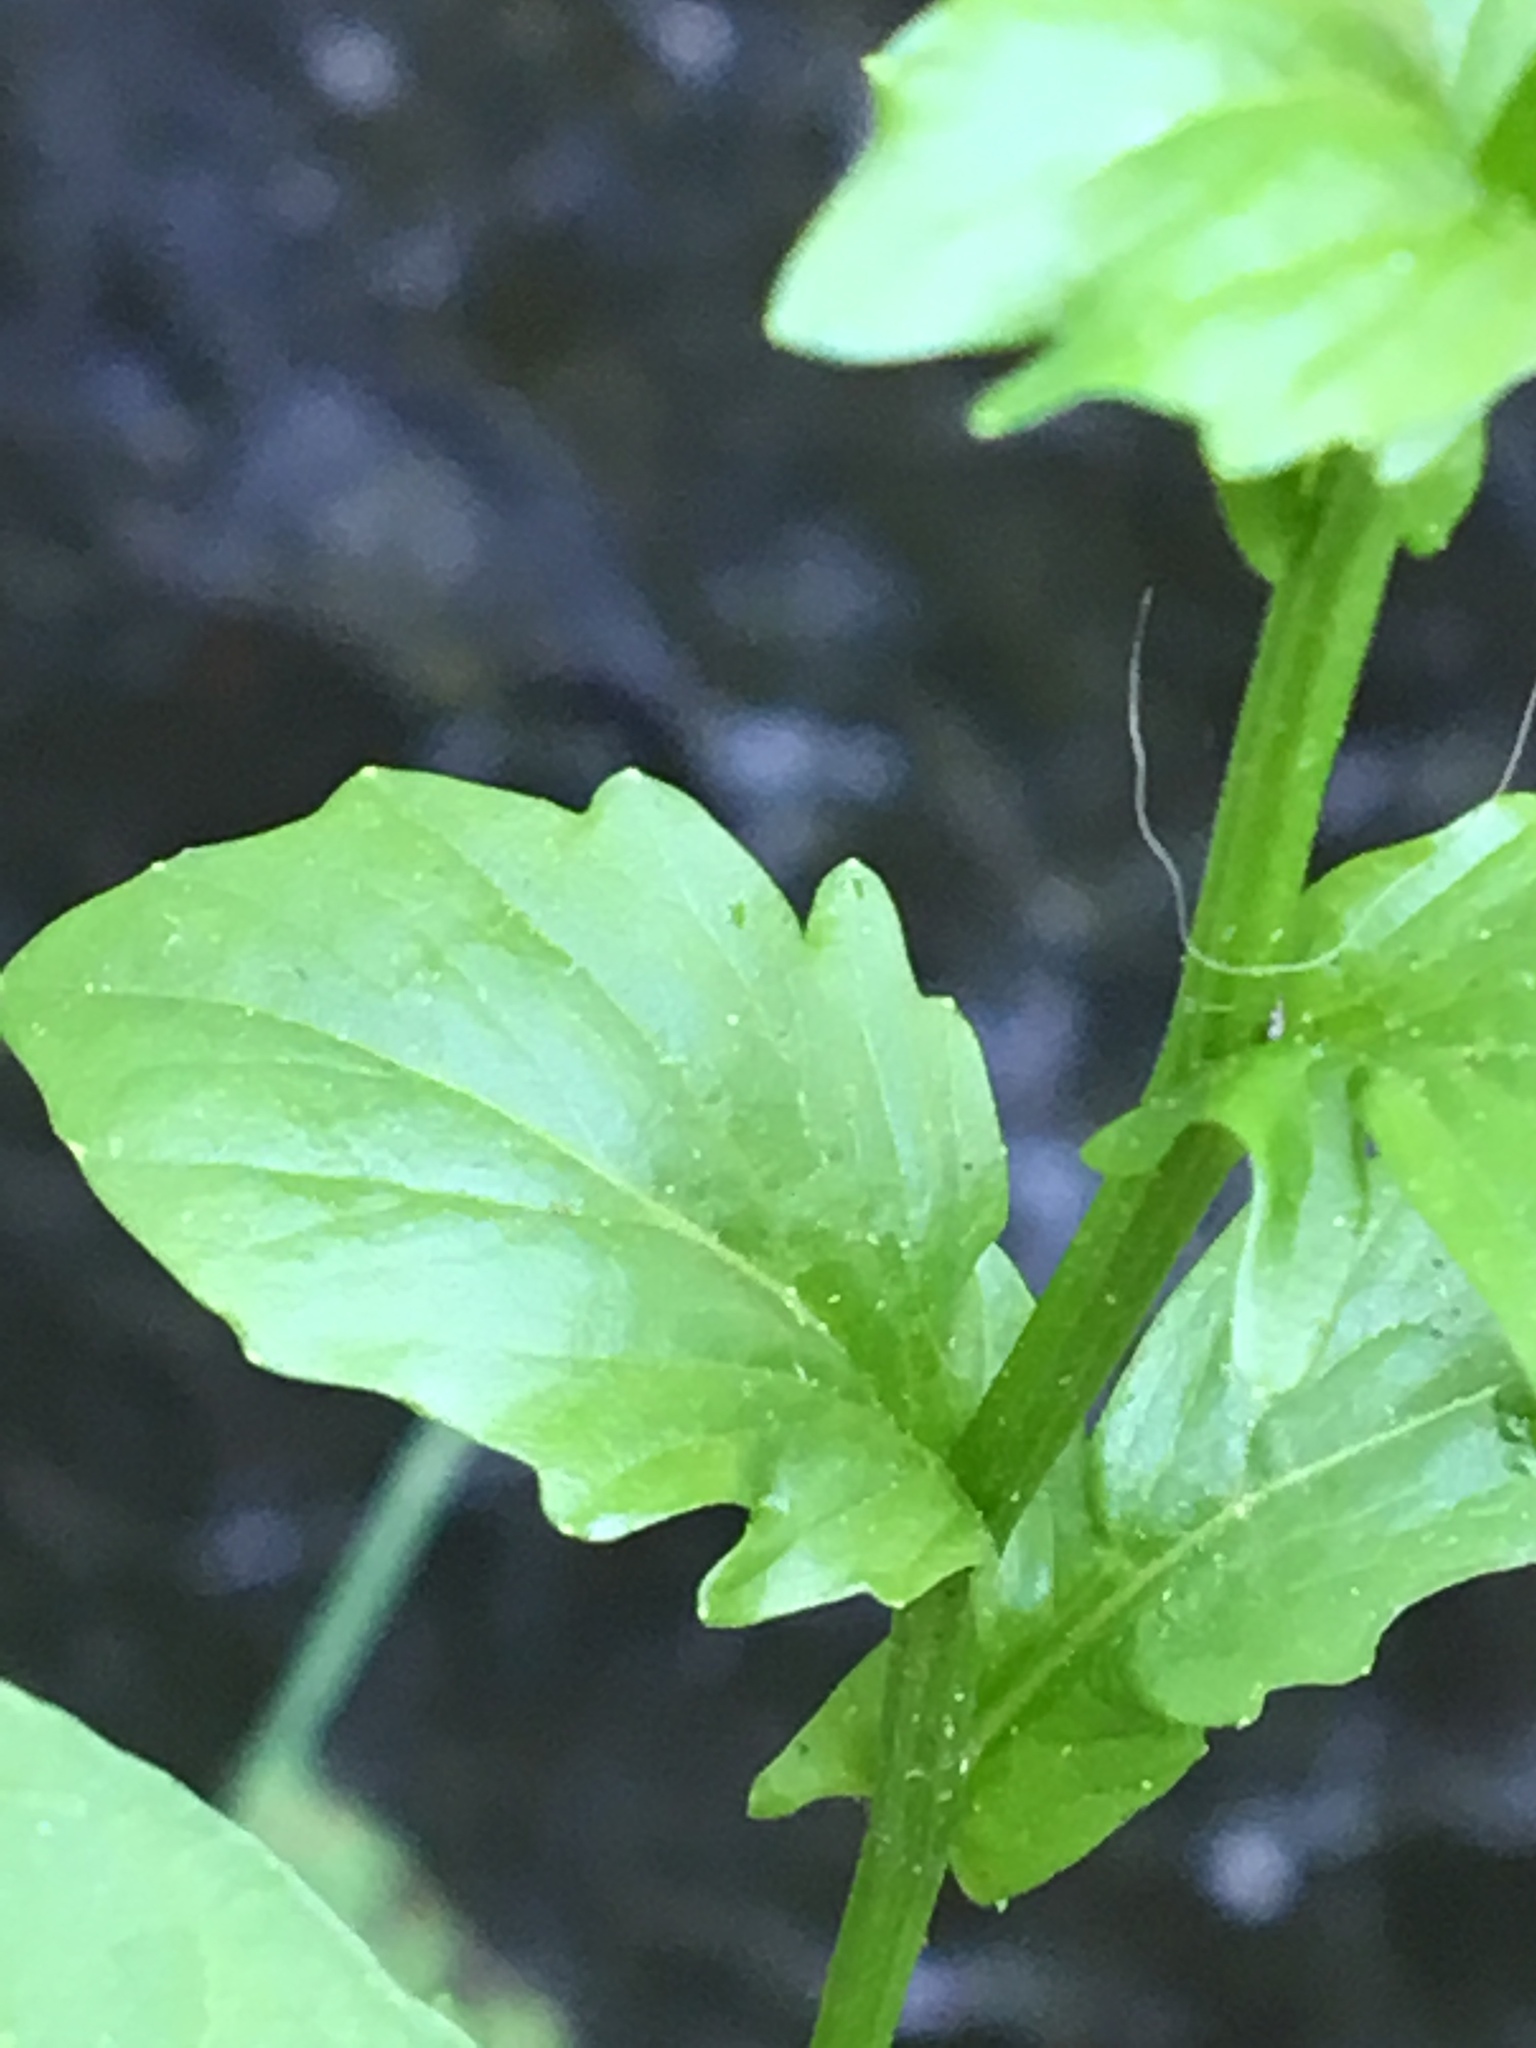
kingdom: Plantae
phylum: Tracheophyta
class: Magnoliopsida
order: Brassicales
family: Brassicaceae
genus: Barbarea
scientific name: Barbarea vulgaris
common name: Cressy-greens
